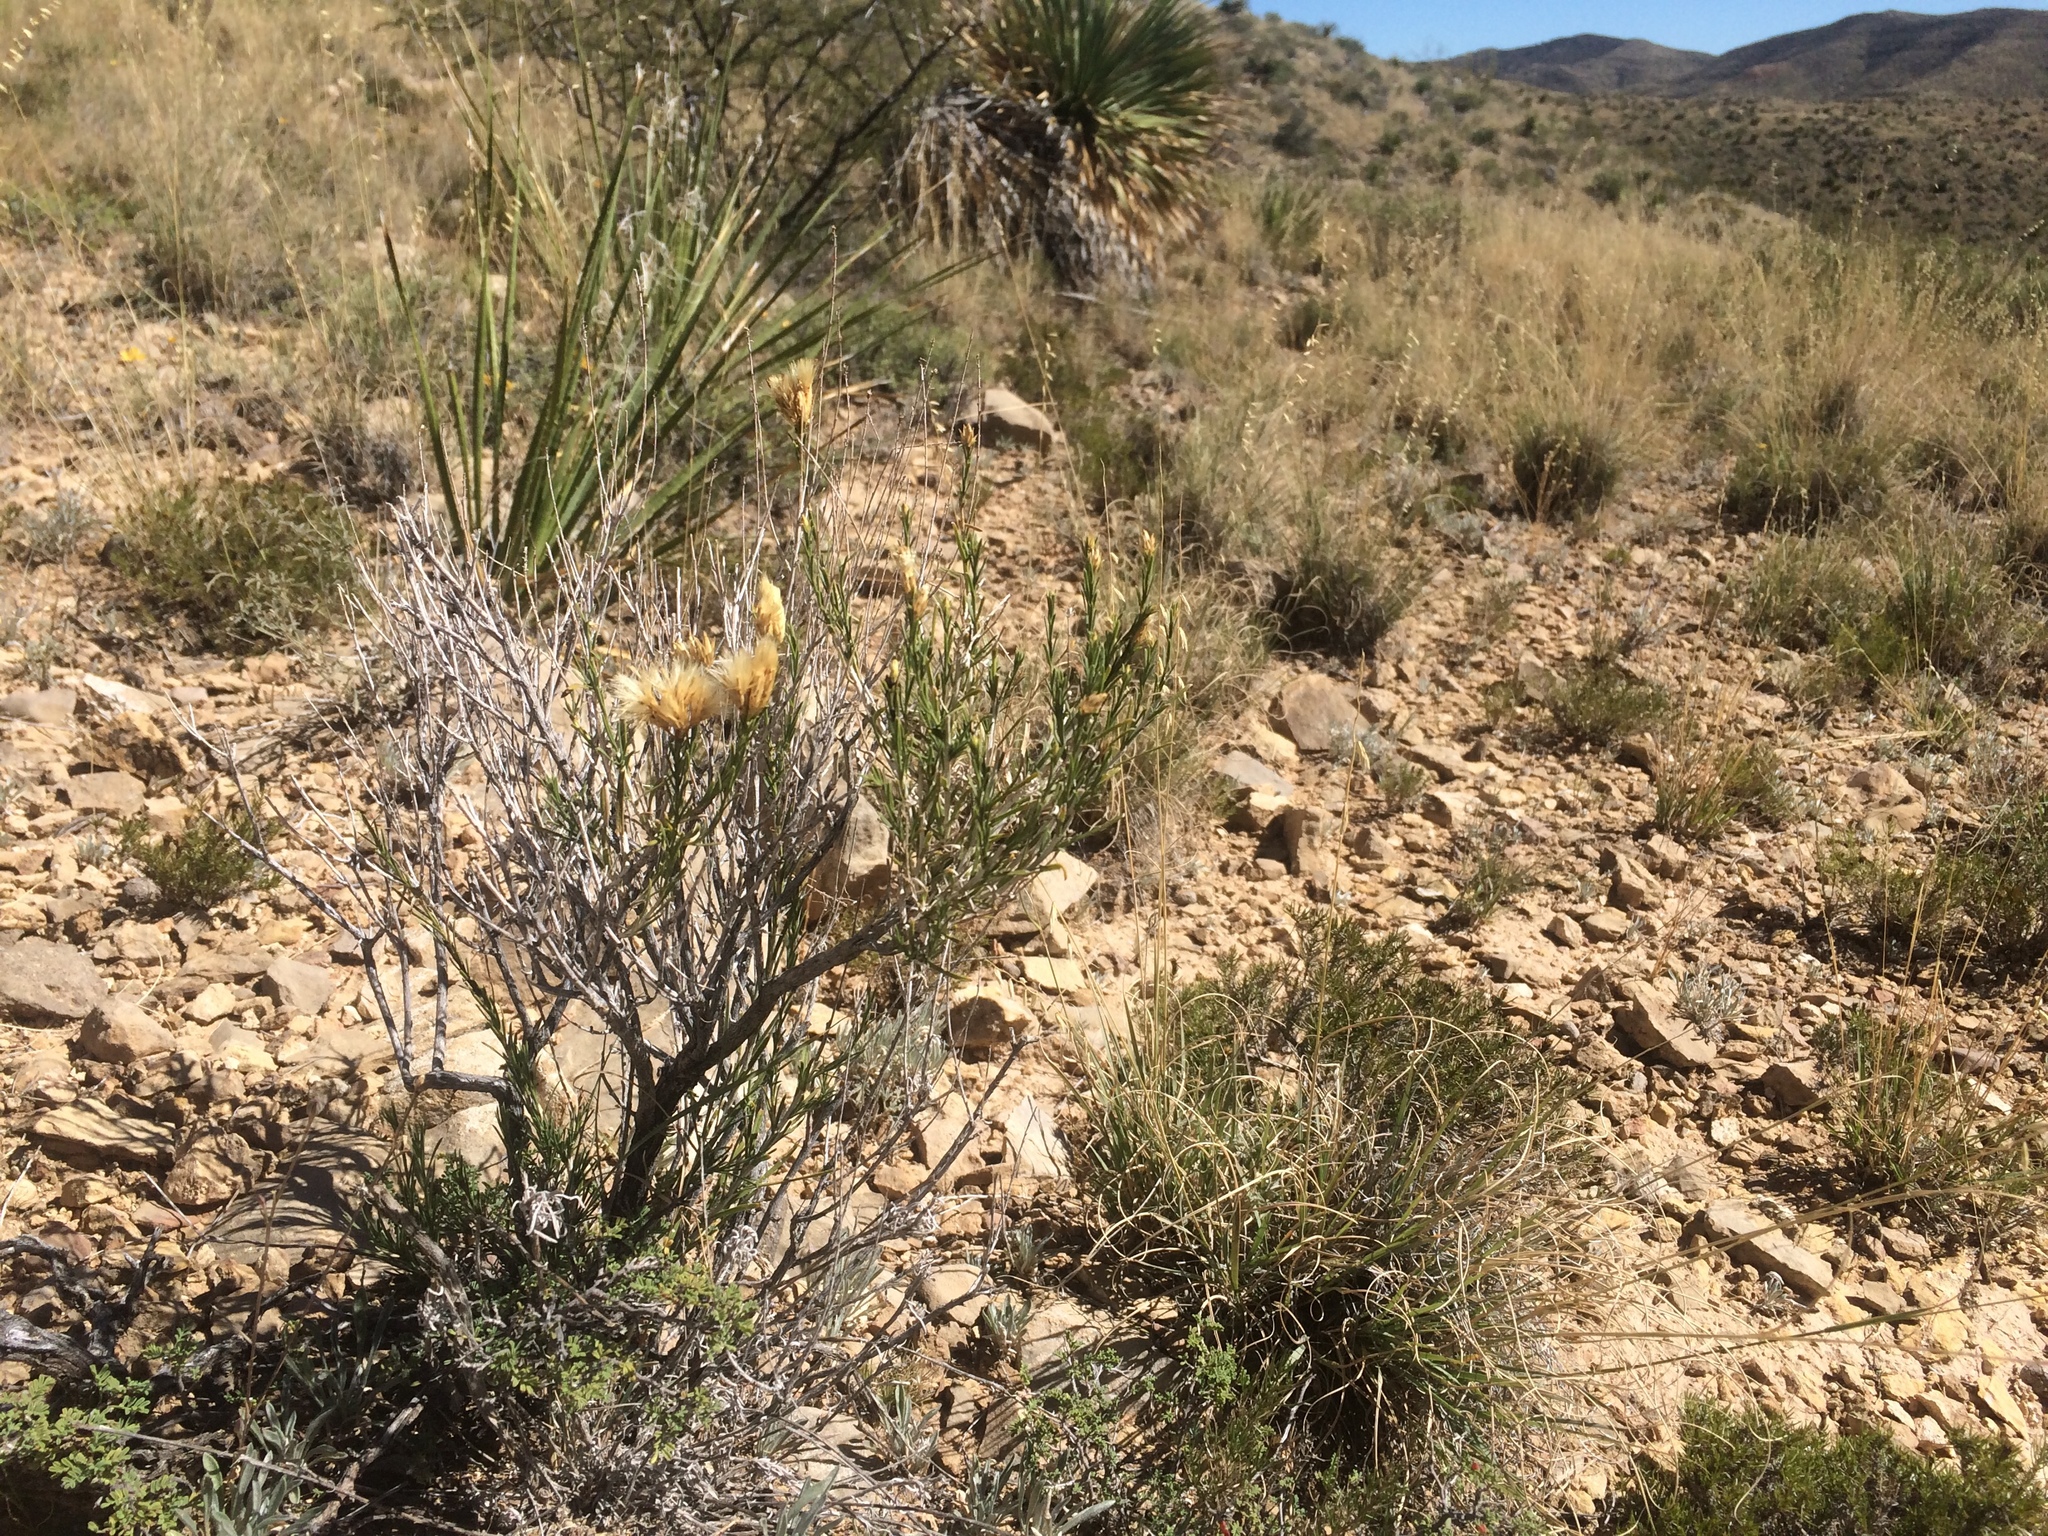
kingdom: Plantae
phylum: Tracheophyta
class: Magnoliopsida
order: Asterales
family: Asteraceae
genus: Lorandersonia
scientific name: Lorandersonia baileyi
